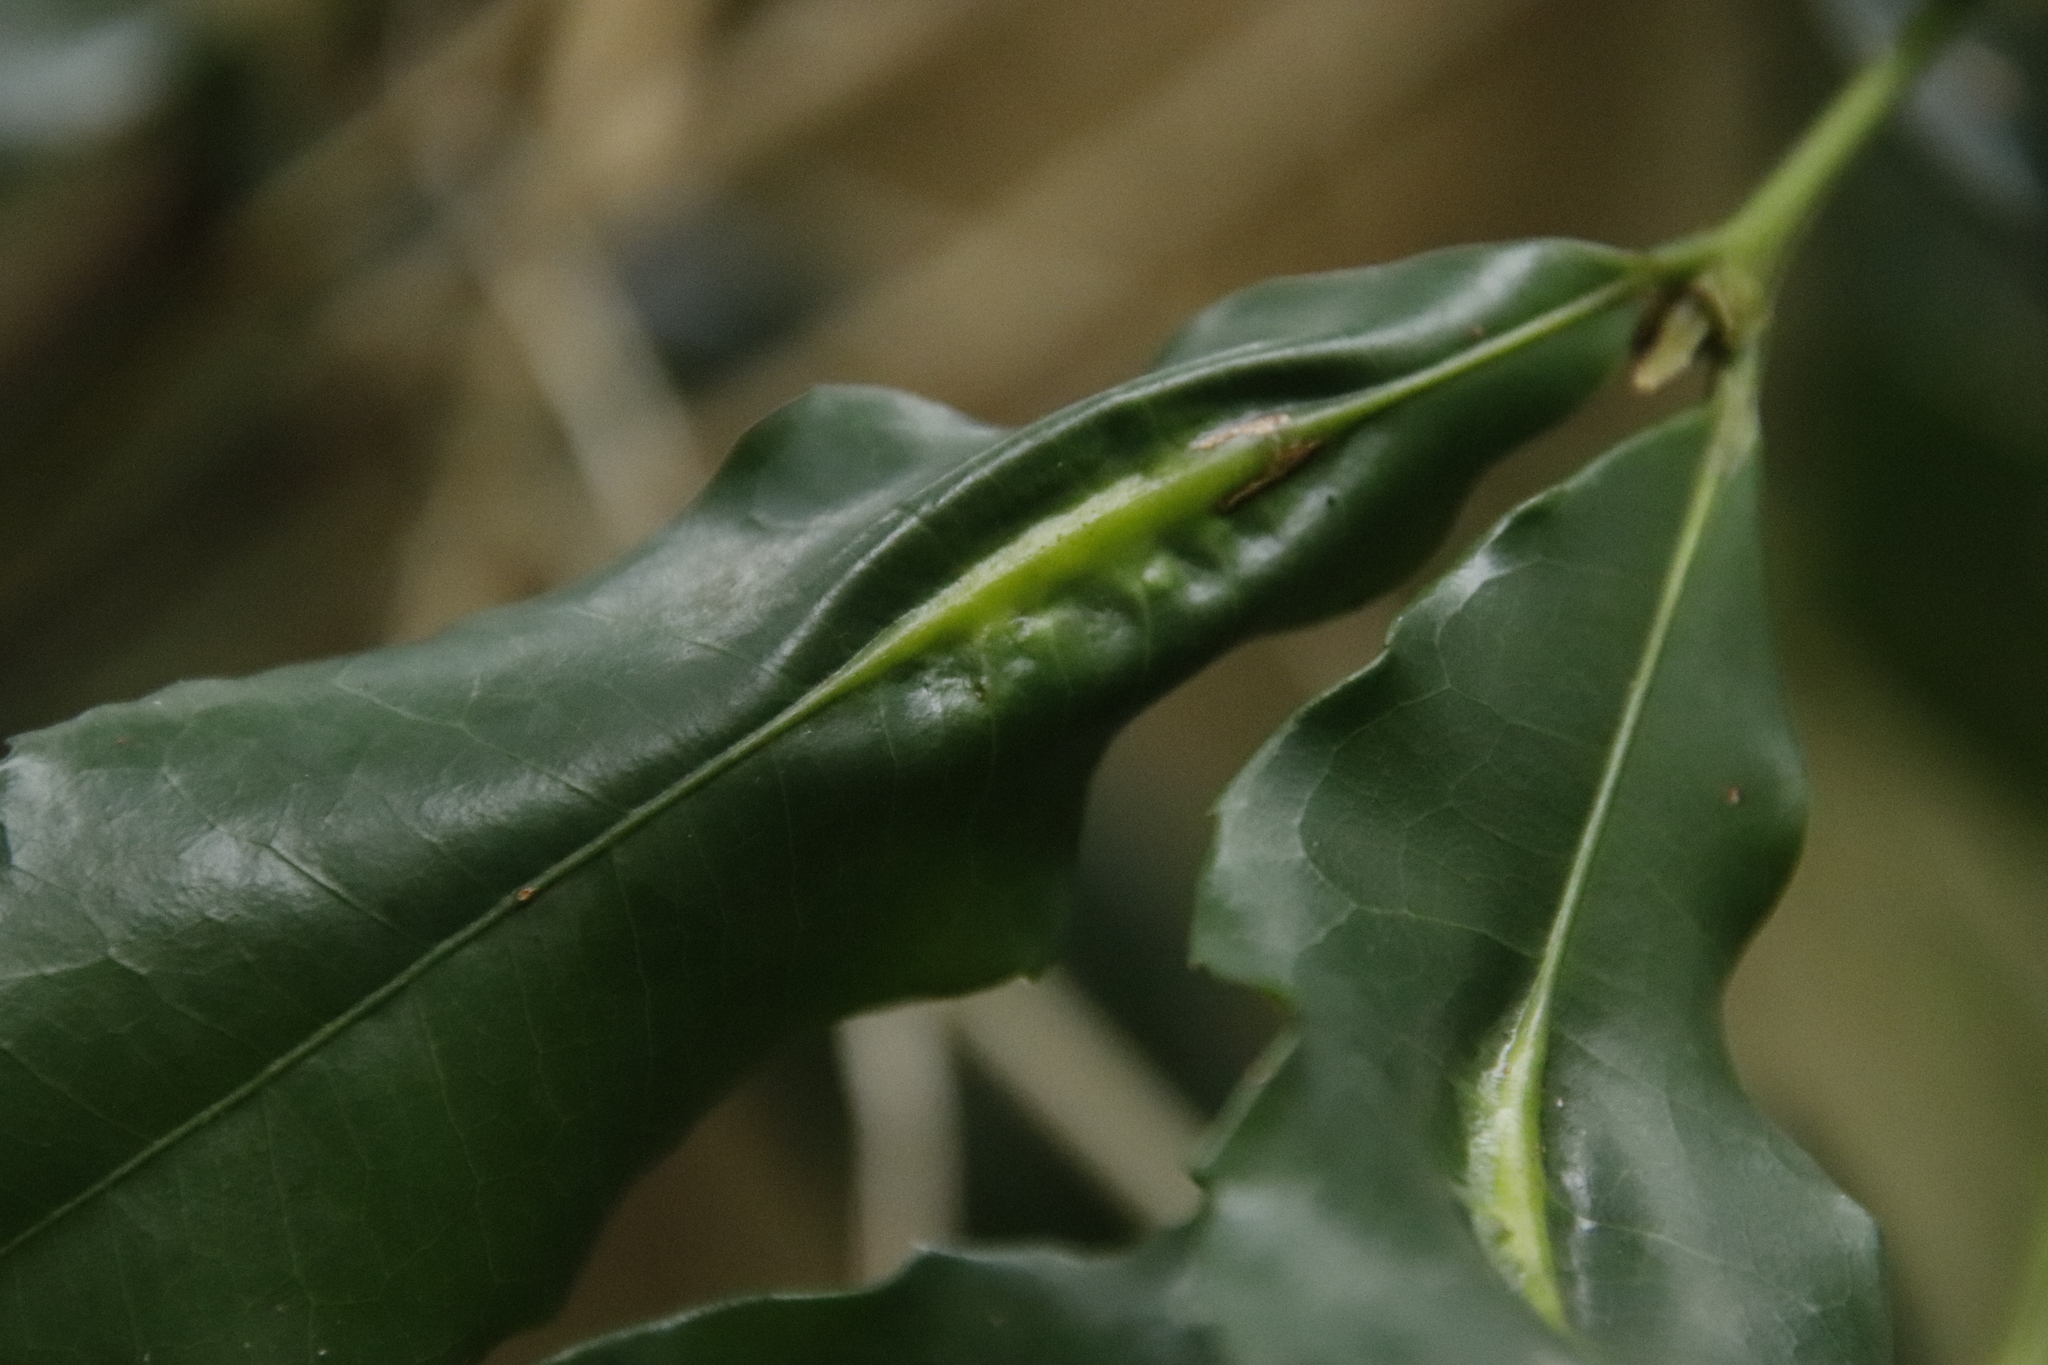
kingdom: Plantae
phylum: Tracheophyta
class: Magnoliopsida
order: Malpighiales
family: Rhizophoraceae
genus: Cassipourea
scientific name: Cassipourea malosana
